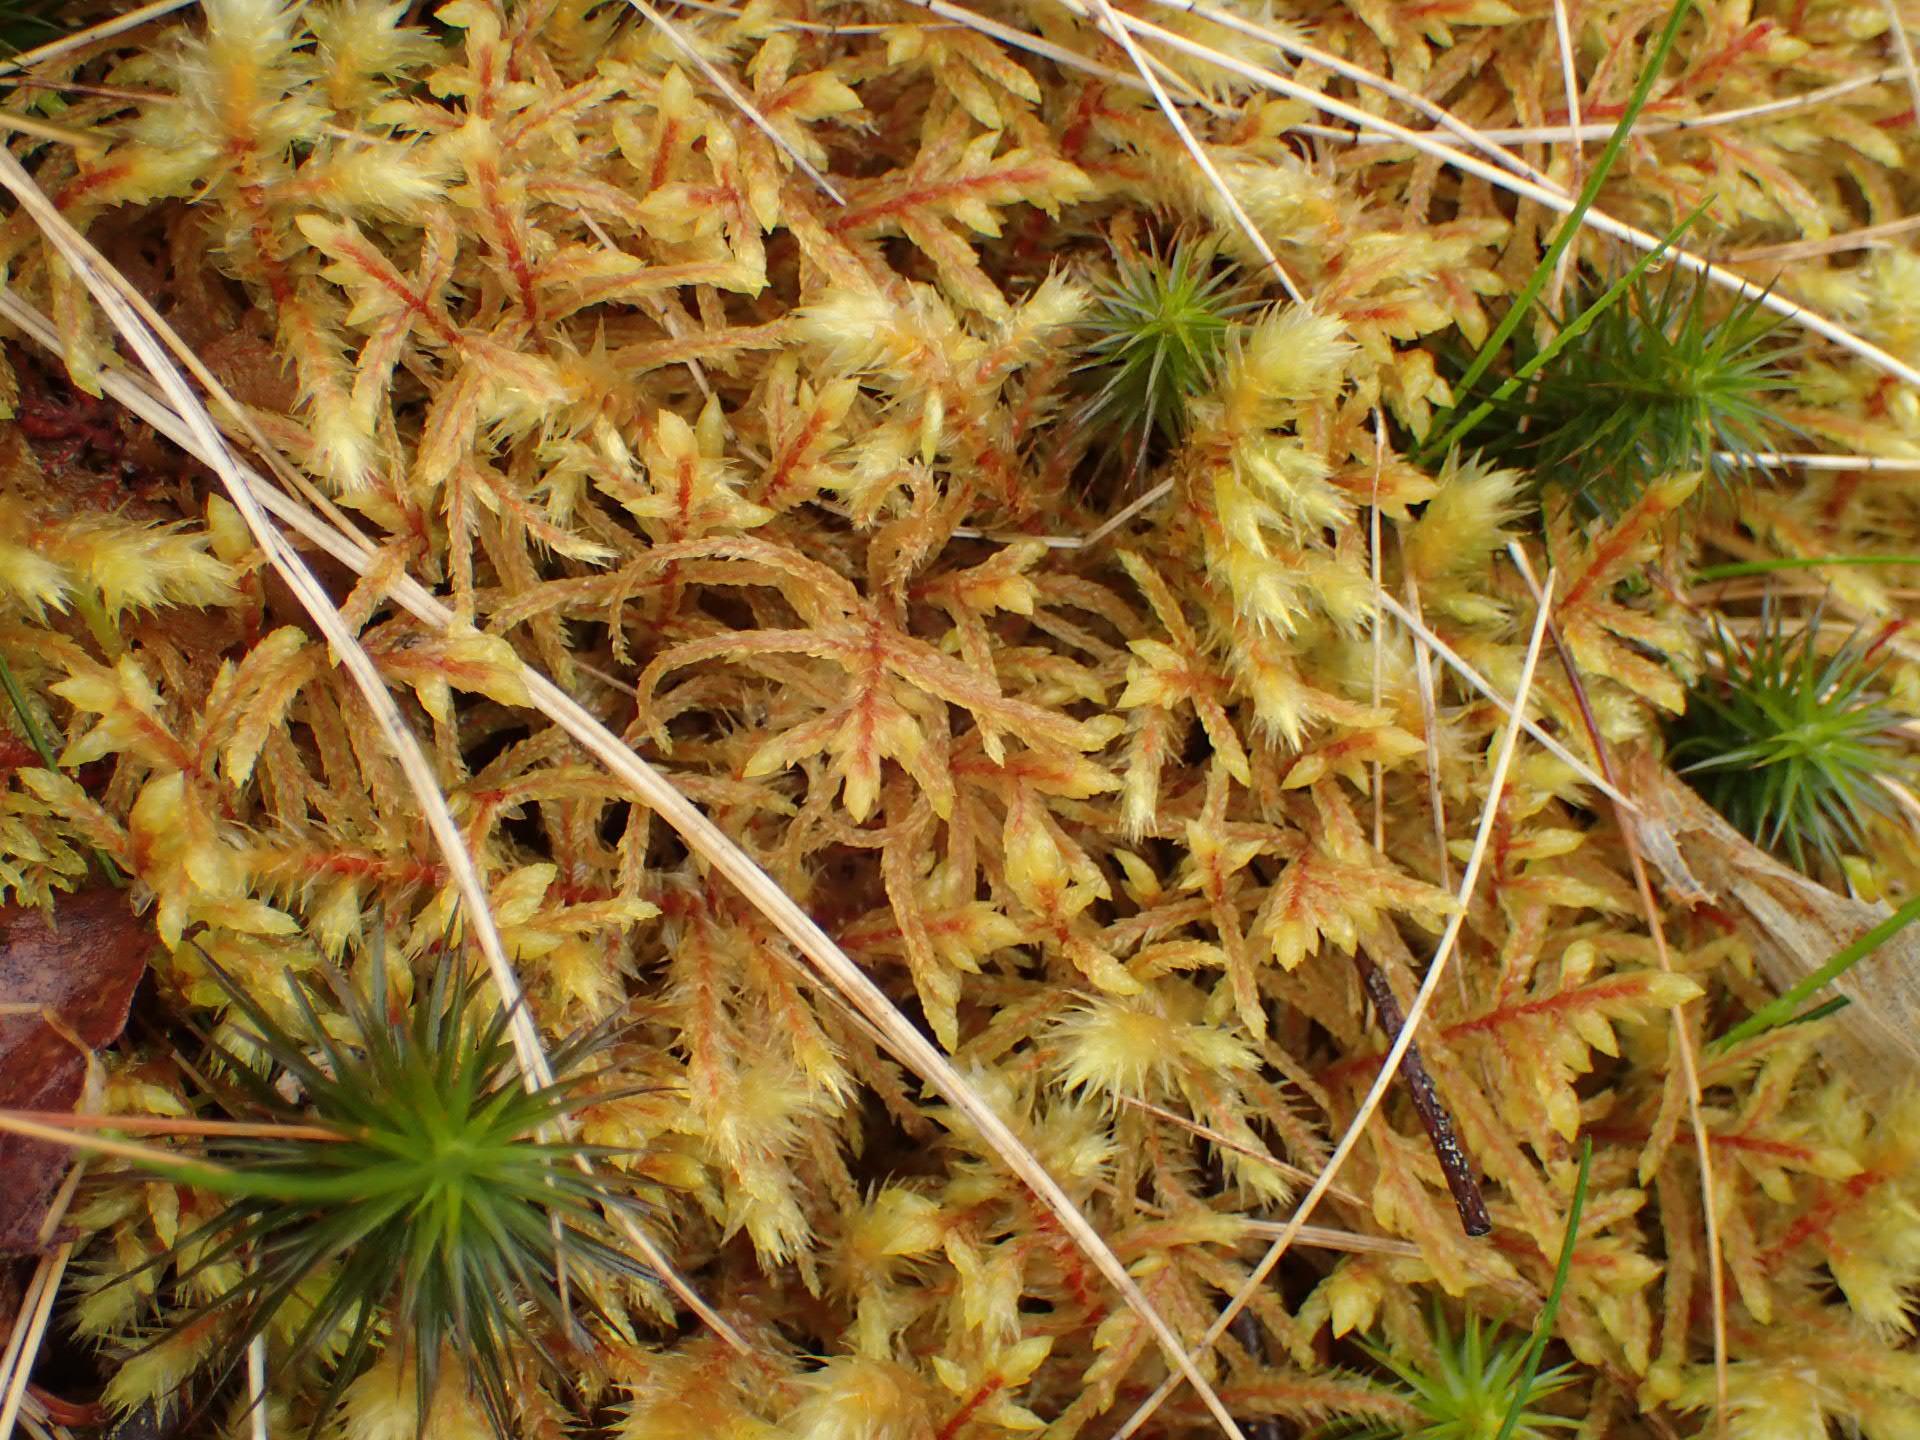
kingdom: Plantae
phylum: Bryophyta
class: Bryopsida
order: Hypnales
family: Hylocomiaceae
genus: Pleurozium
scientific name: Pleurozium schreberi
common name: Red-stemmed feather moss
